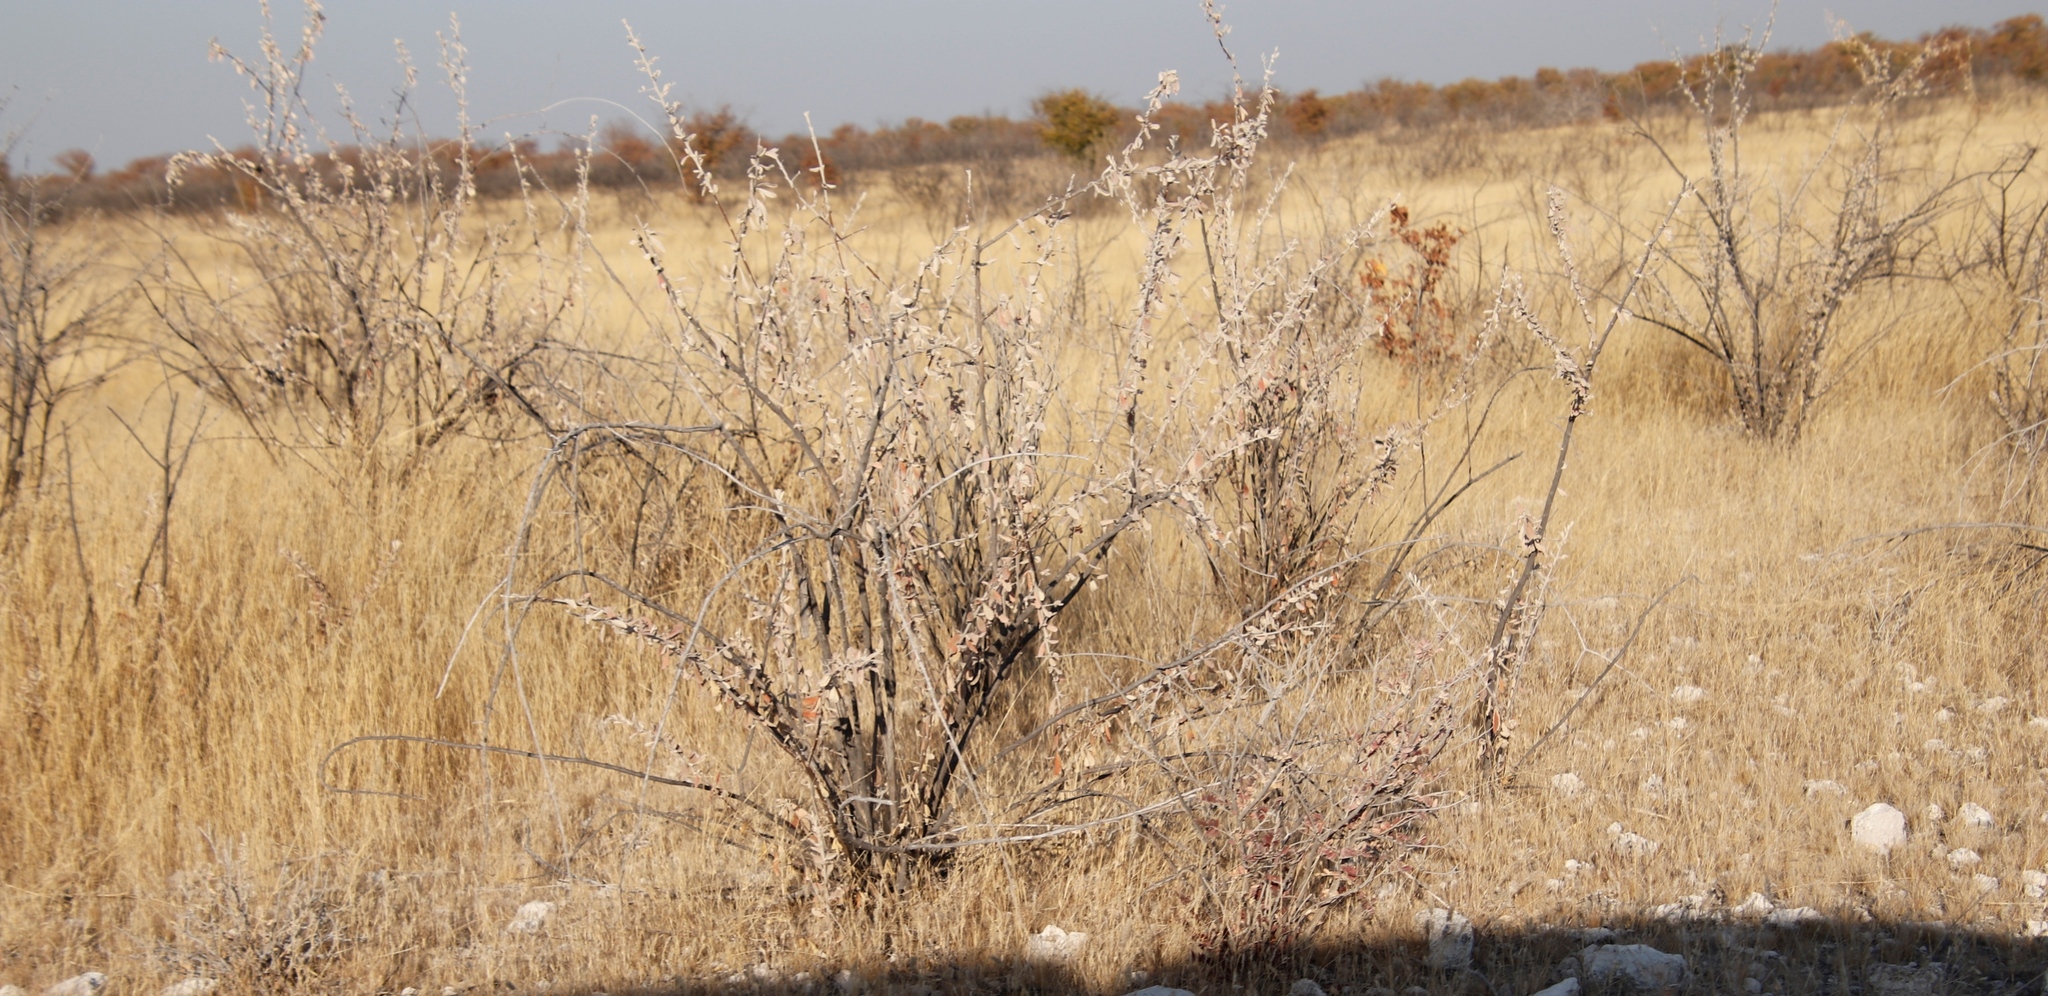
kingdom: Plantae
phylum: Tracheophyta
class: Magnoliopsida
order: Lamiales
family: Bignoniaceae
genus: Catophractes
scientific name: Catophractes alexandri
